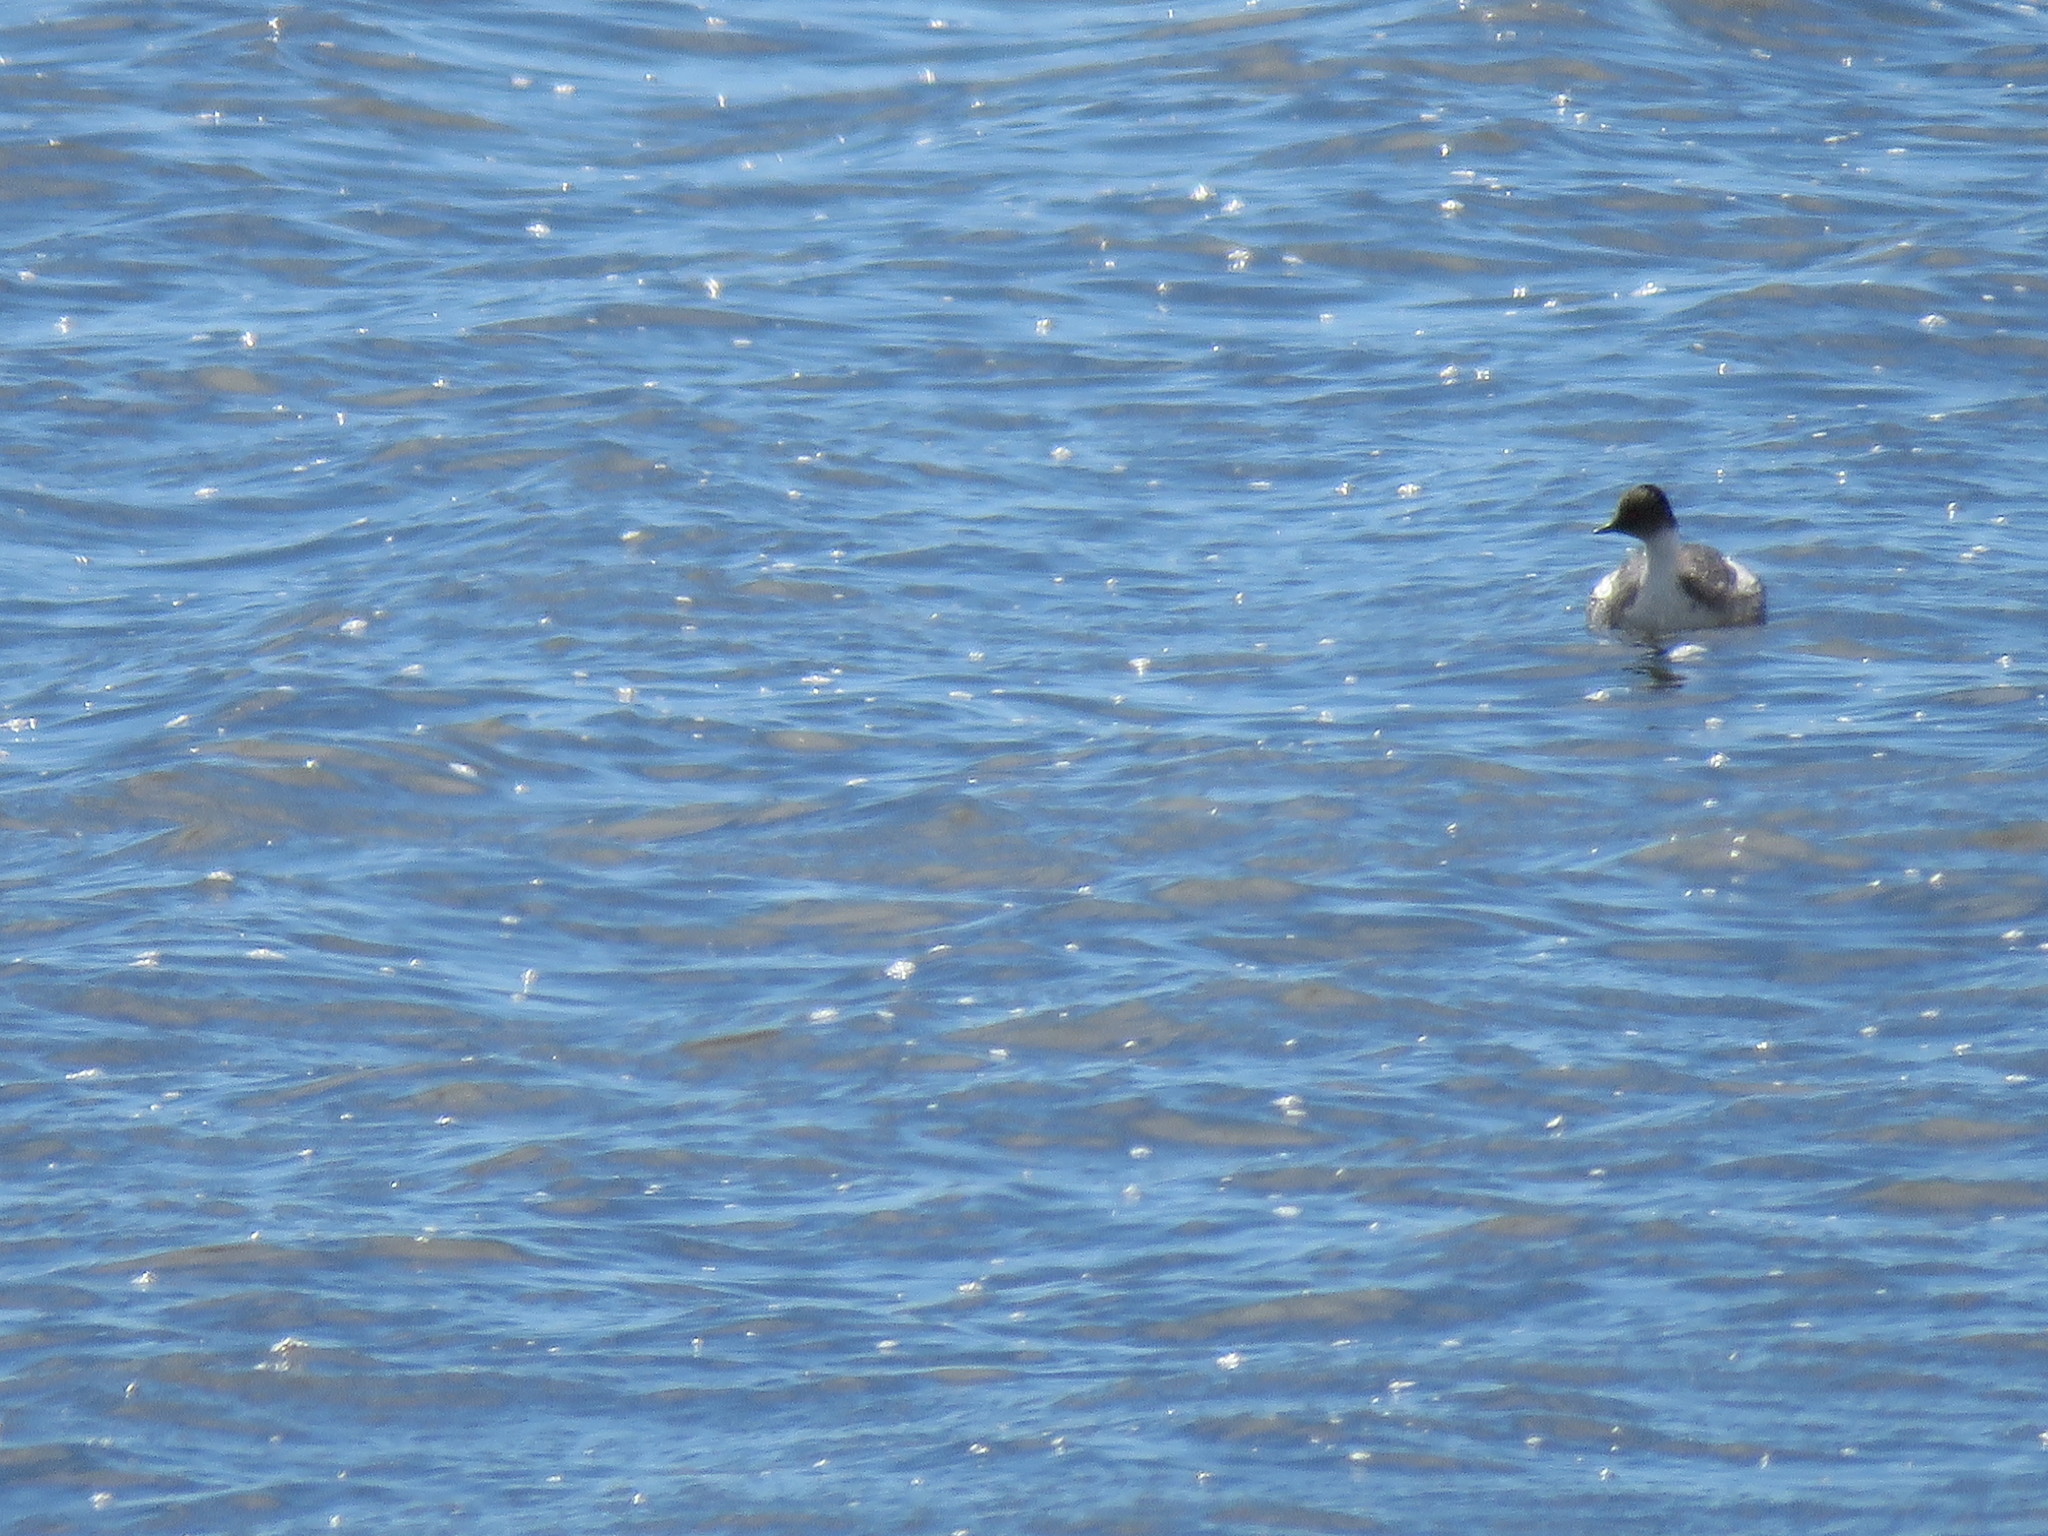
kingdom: Animalia
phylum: Chordata
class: Aves
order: Podicipediformes
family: Podicipedidae
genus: Podiceps
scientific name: Podiceps occipitalis
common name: Silvery grebe
